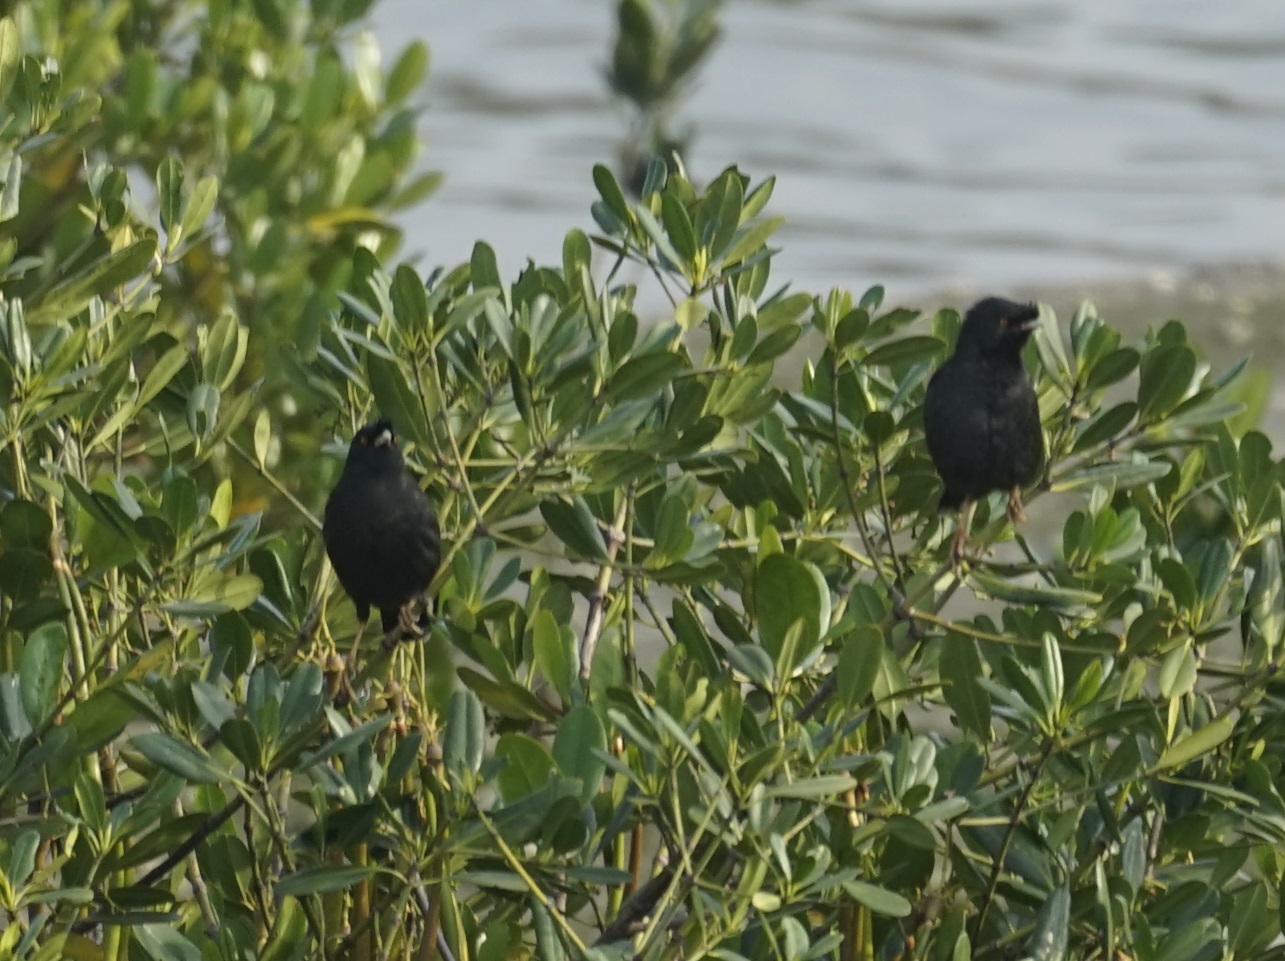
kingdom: Animalia
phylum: Chordata
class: Aves
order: Passeriformes
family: Sturnidae
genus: Acridotheres
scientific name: Acridotheres cristatellus
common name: Crested myna
